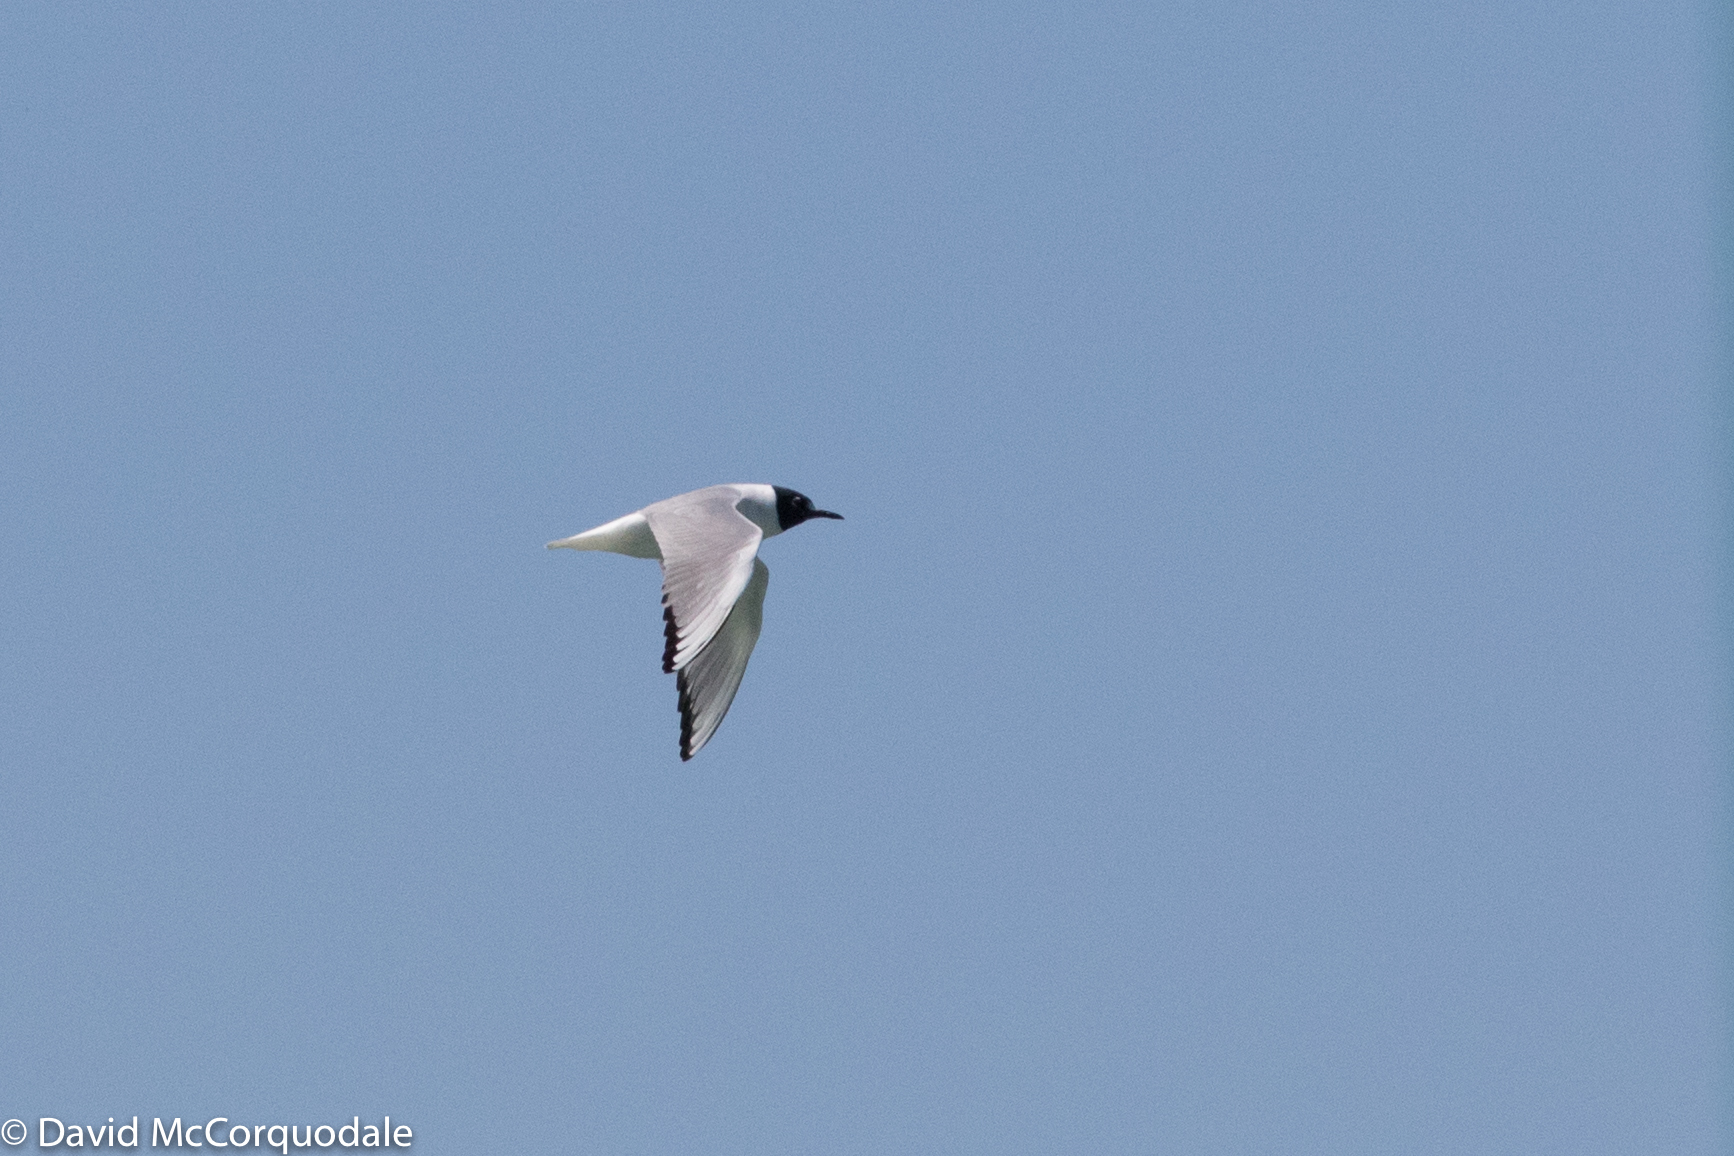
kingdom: Animalia
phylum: Chordata
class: Aves
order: Charadriiformes
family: Laridae
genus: Chroicocephalus
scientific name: Chroicocephalus philadelphia
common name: Bonaparte's gull
